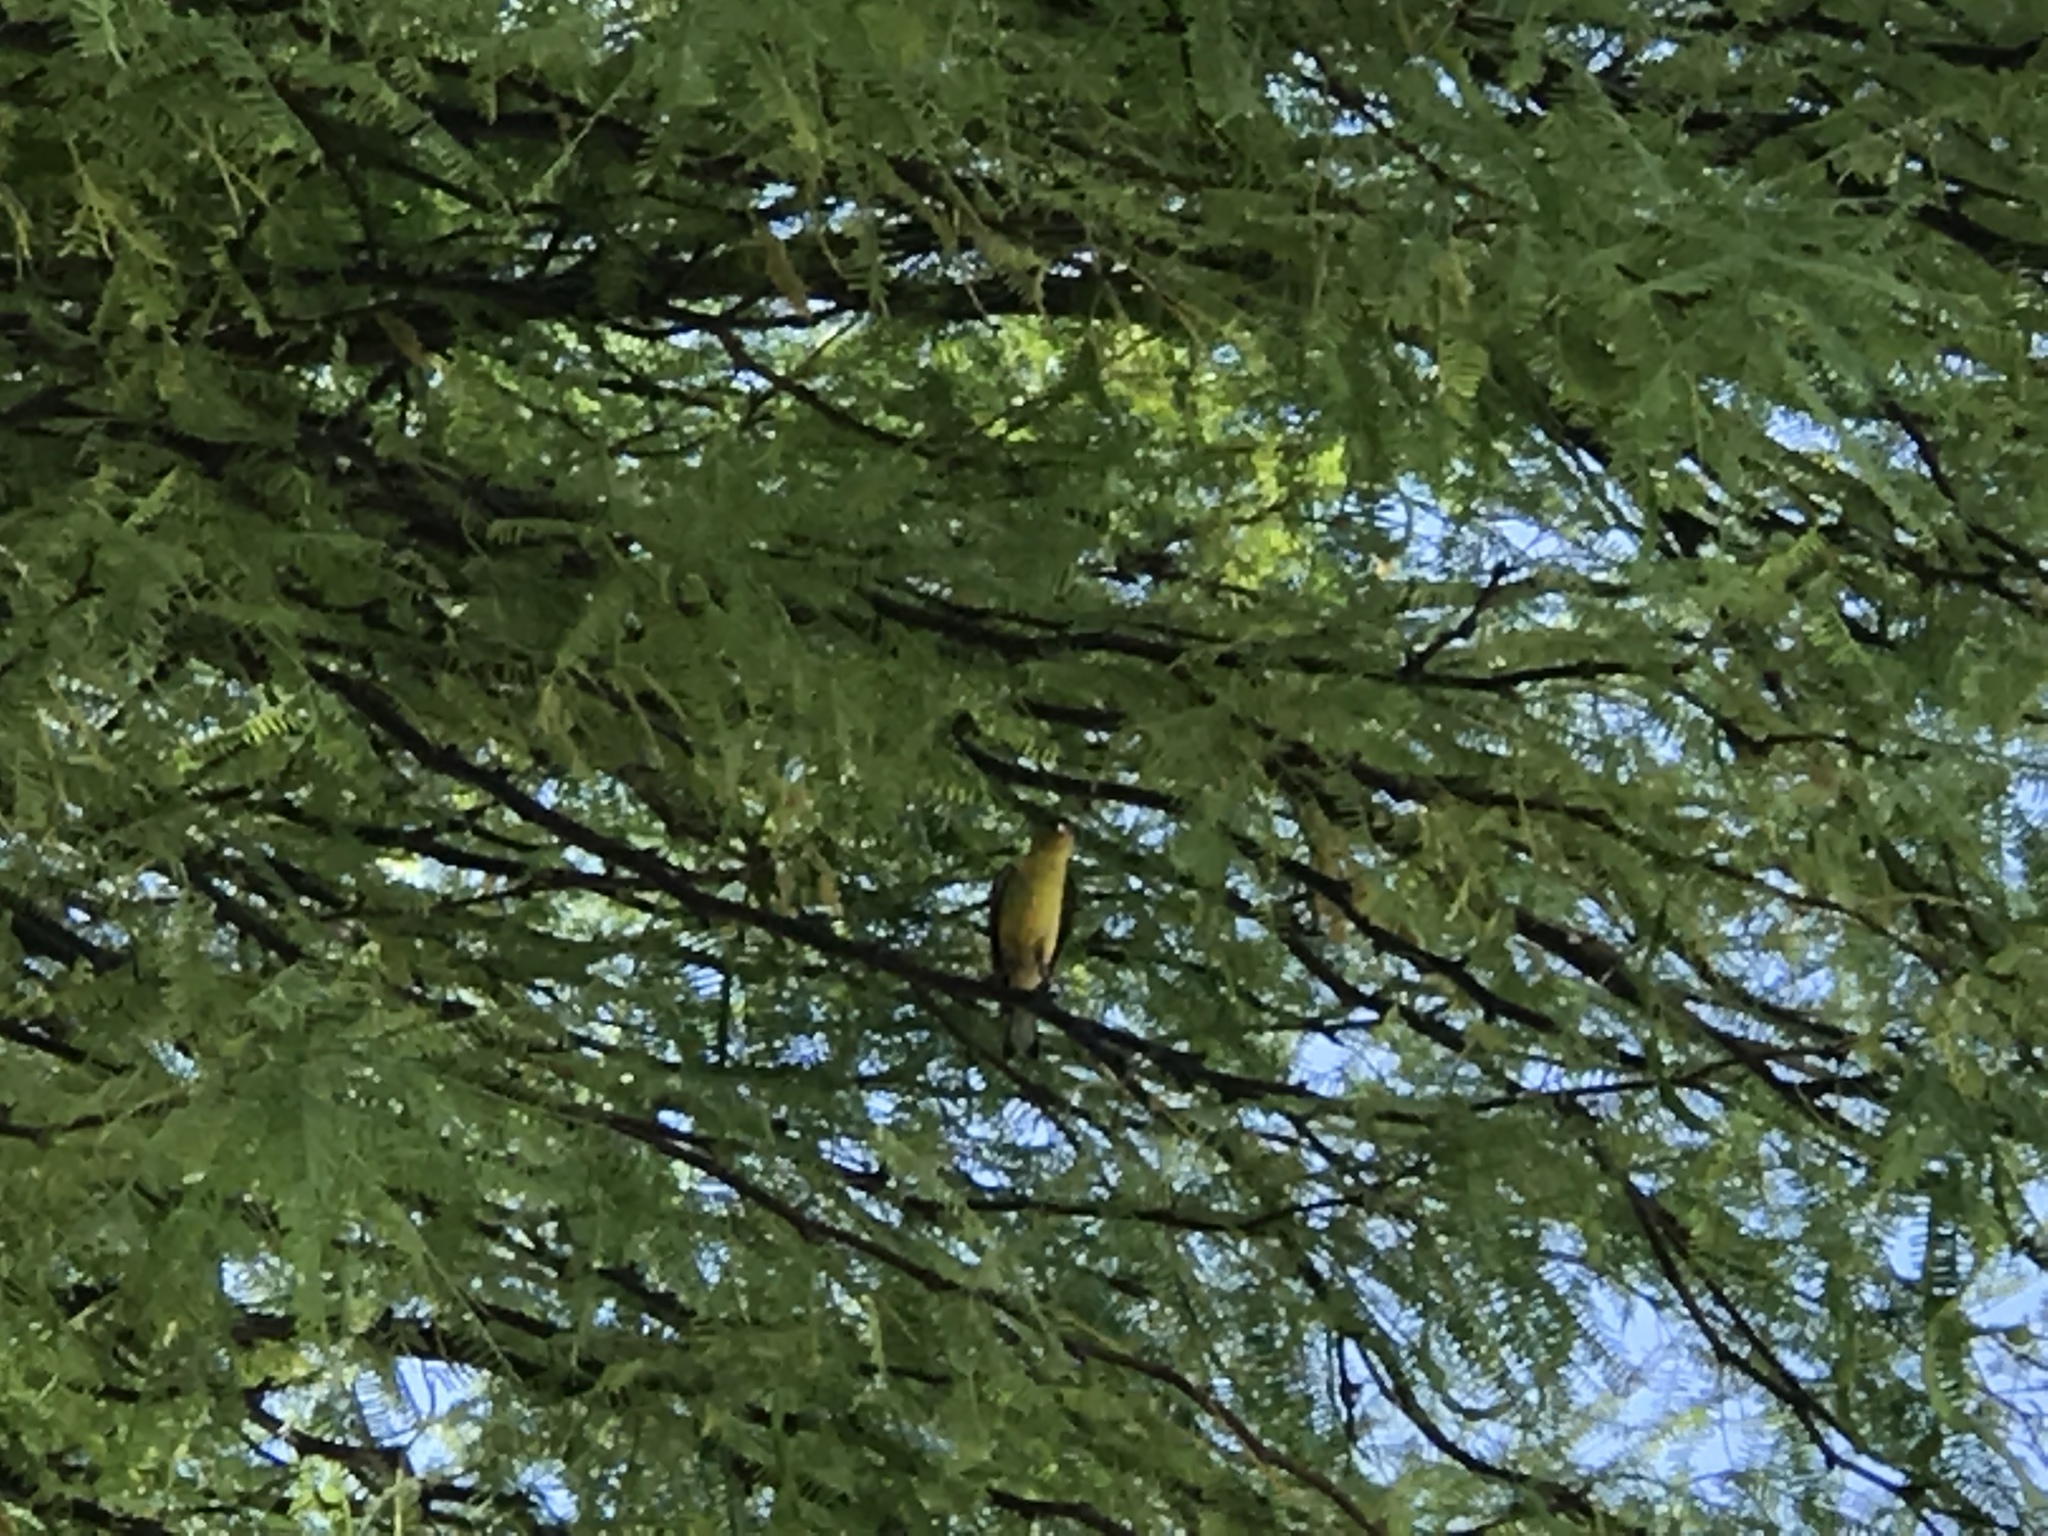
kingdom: Animalia
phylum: Chordata
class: Aves
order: Passeriformes
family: Fringillidae
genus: Spinus
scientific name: Spinus psaltria
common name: Lesser goldfinch
